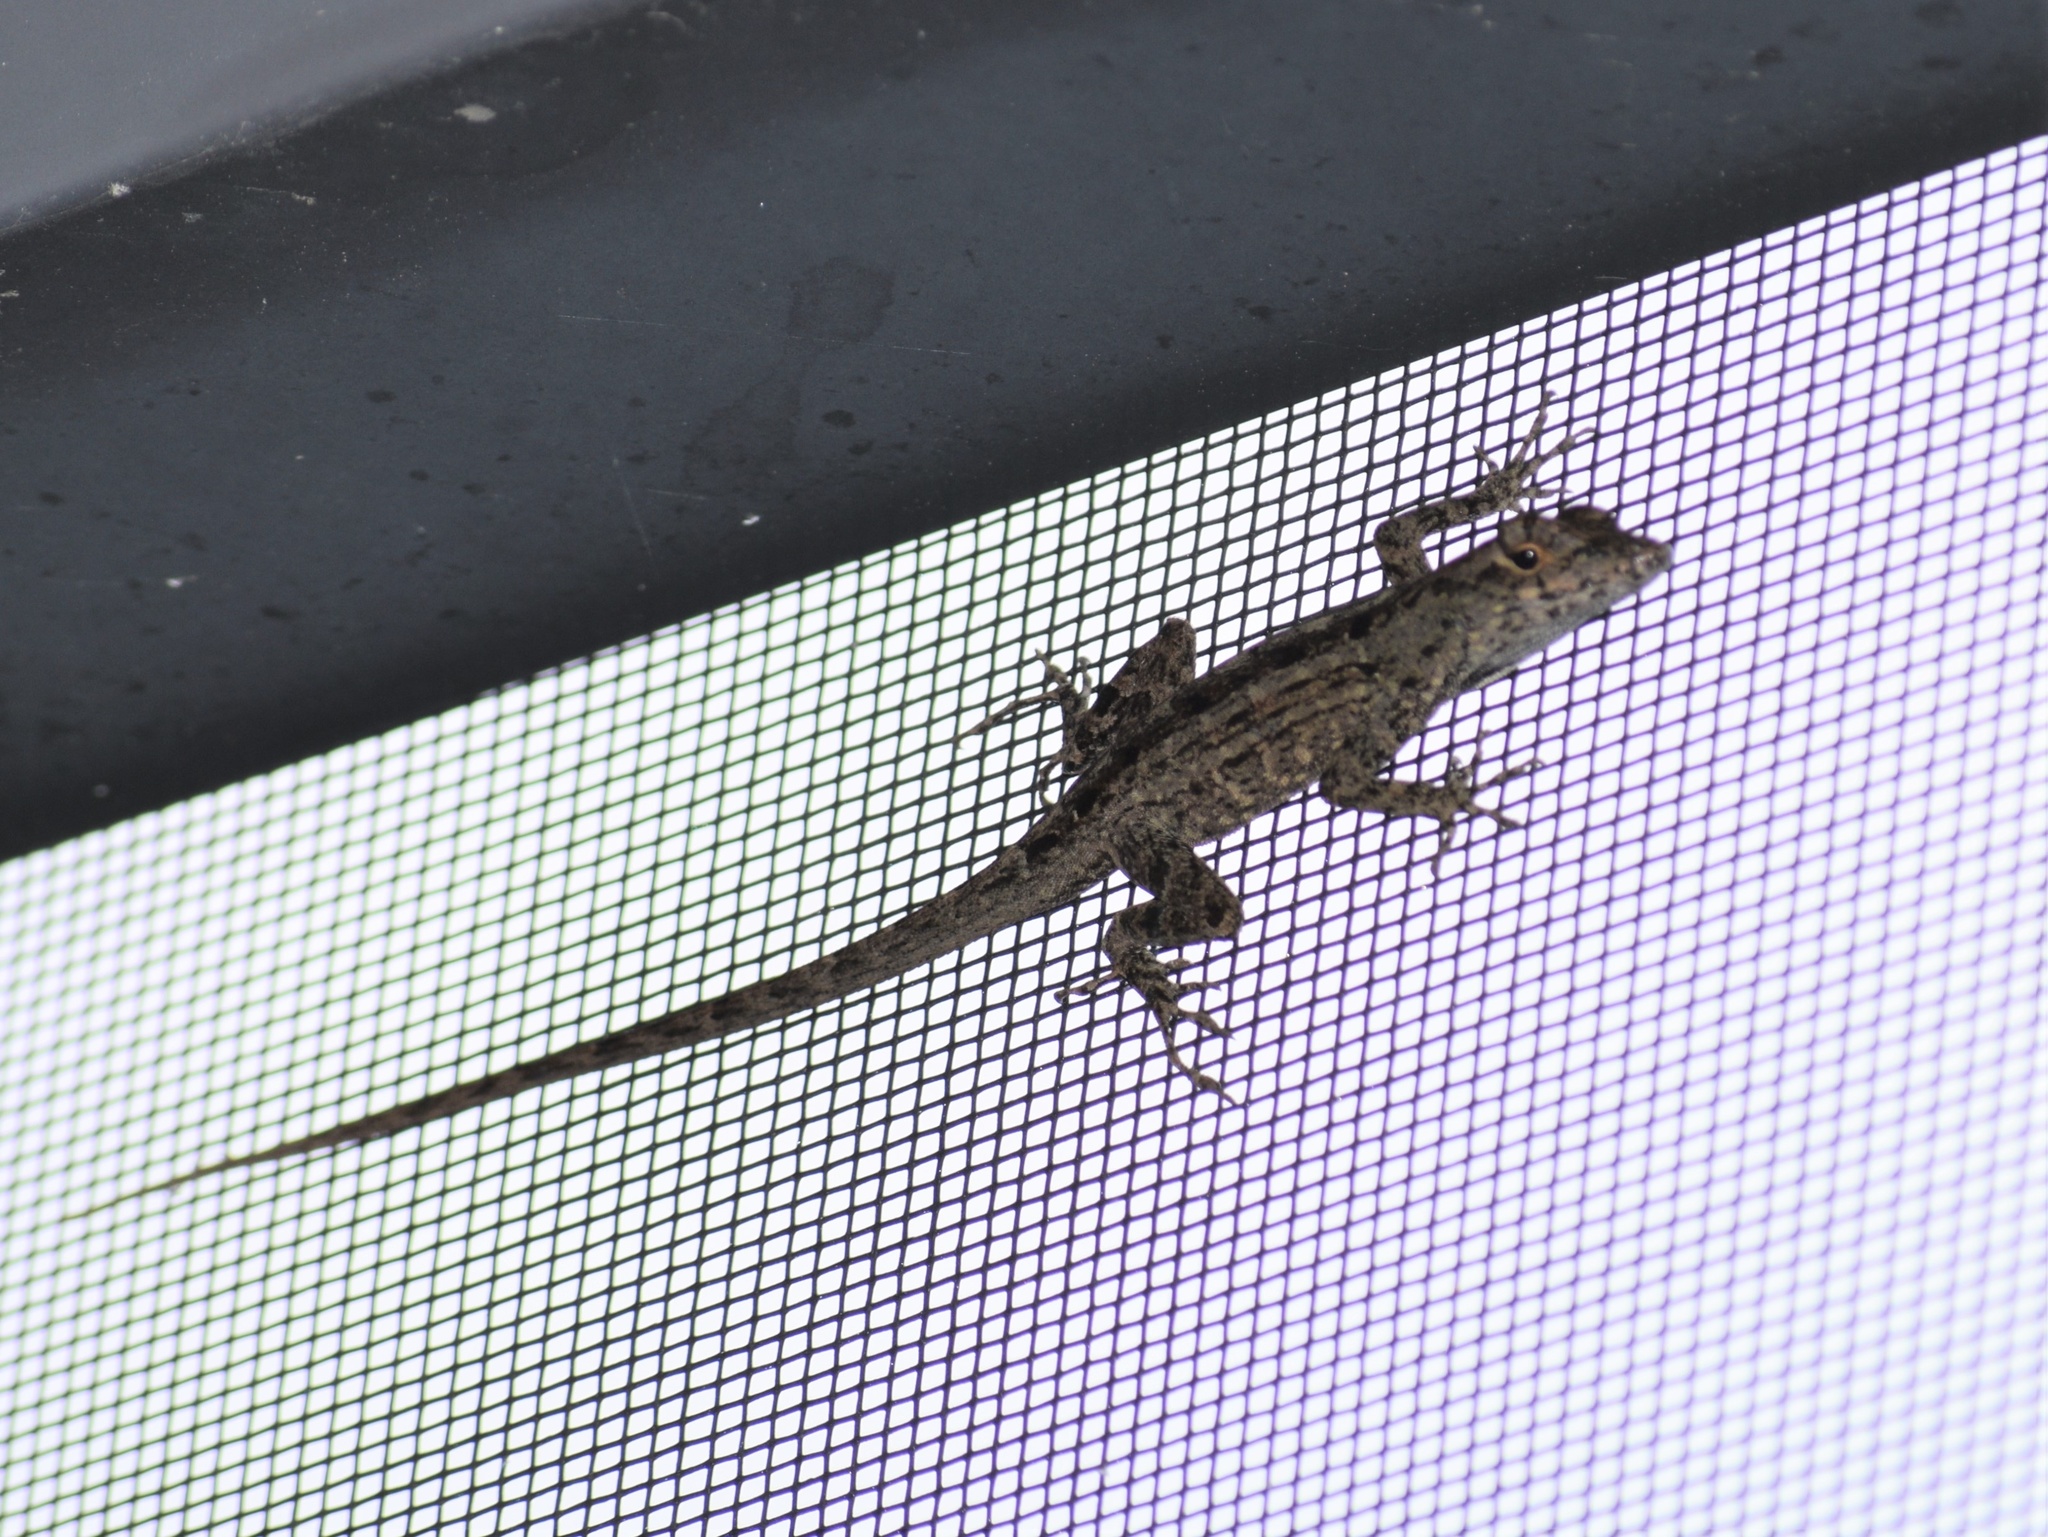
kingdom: Animalia
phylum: Chordata
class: Squamata
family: Dactyloidae
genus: Anolis
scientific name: Anolis sagrei
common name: Brown anole
